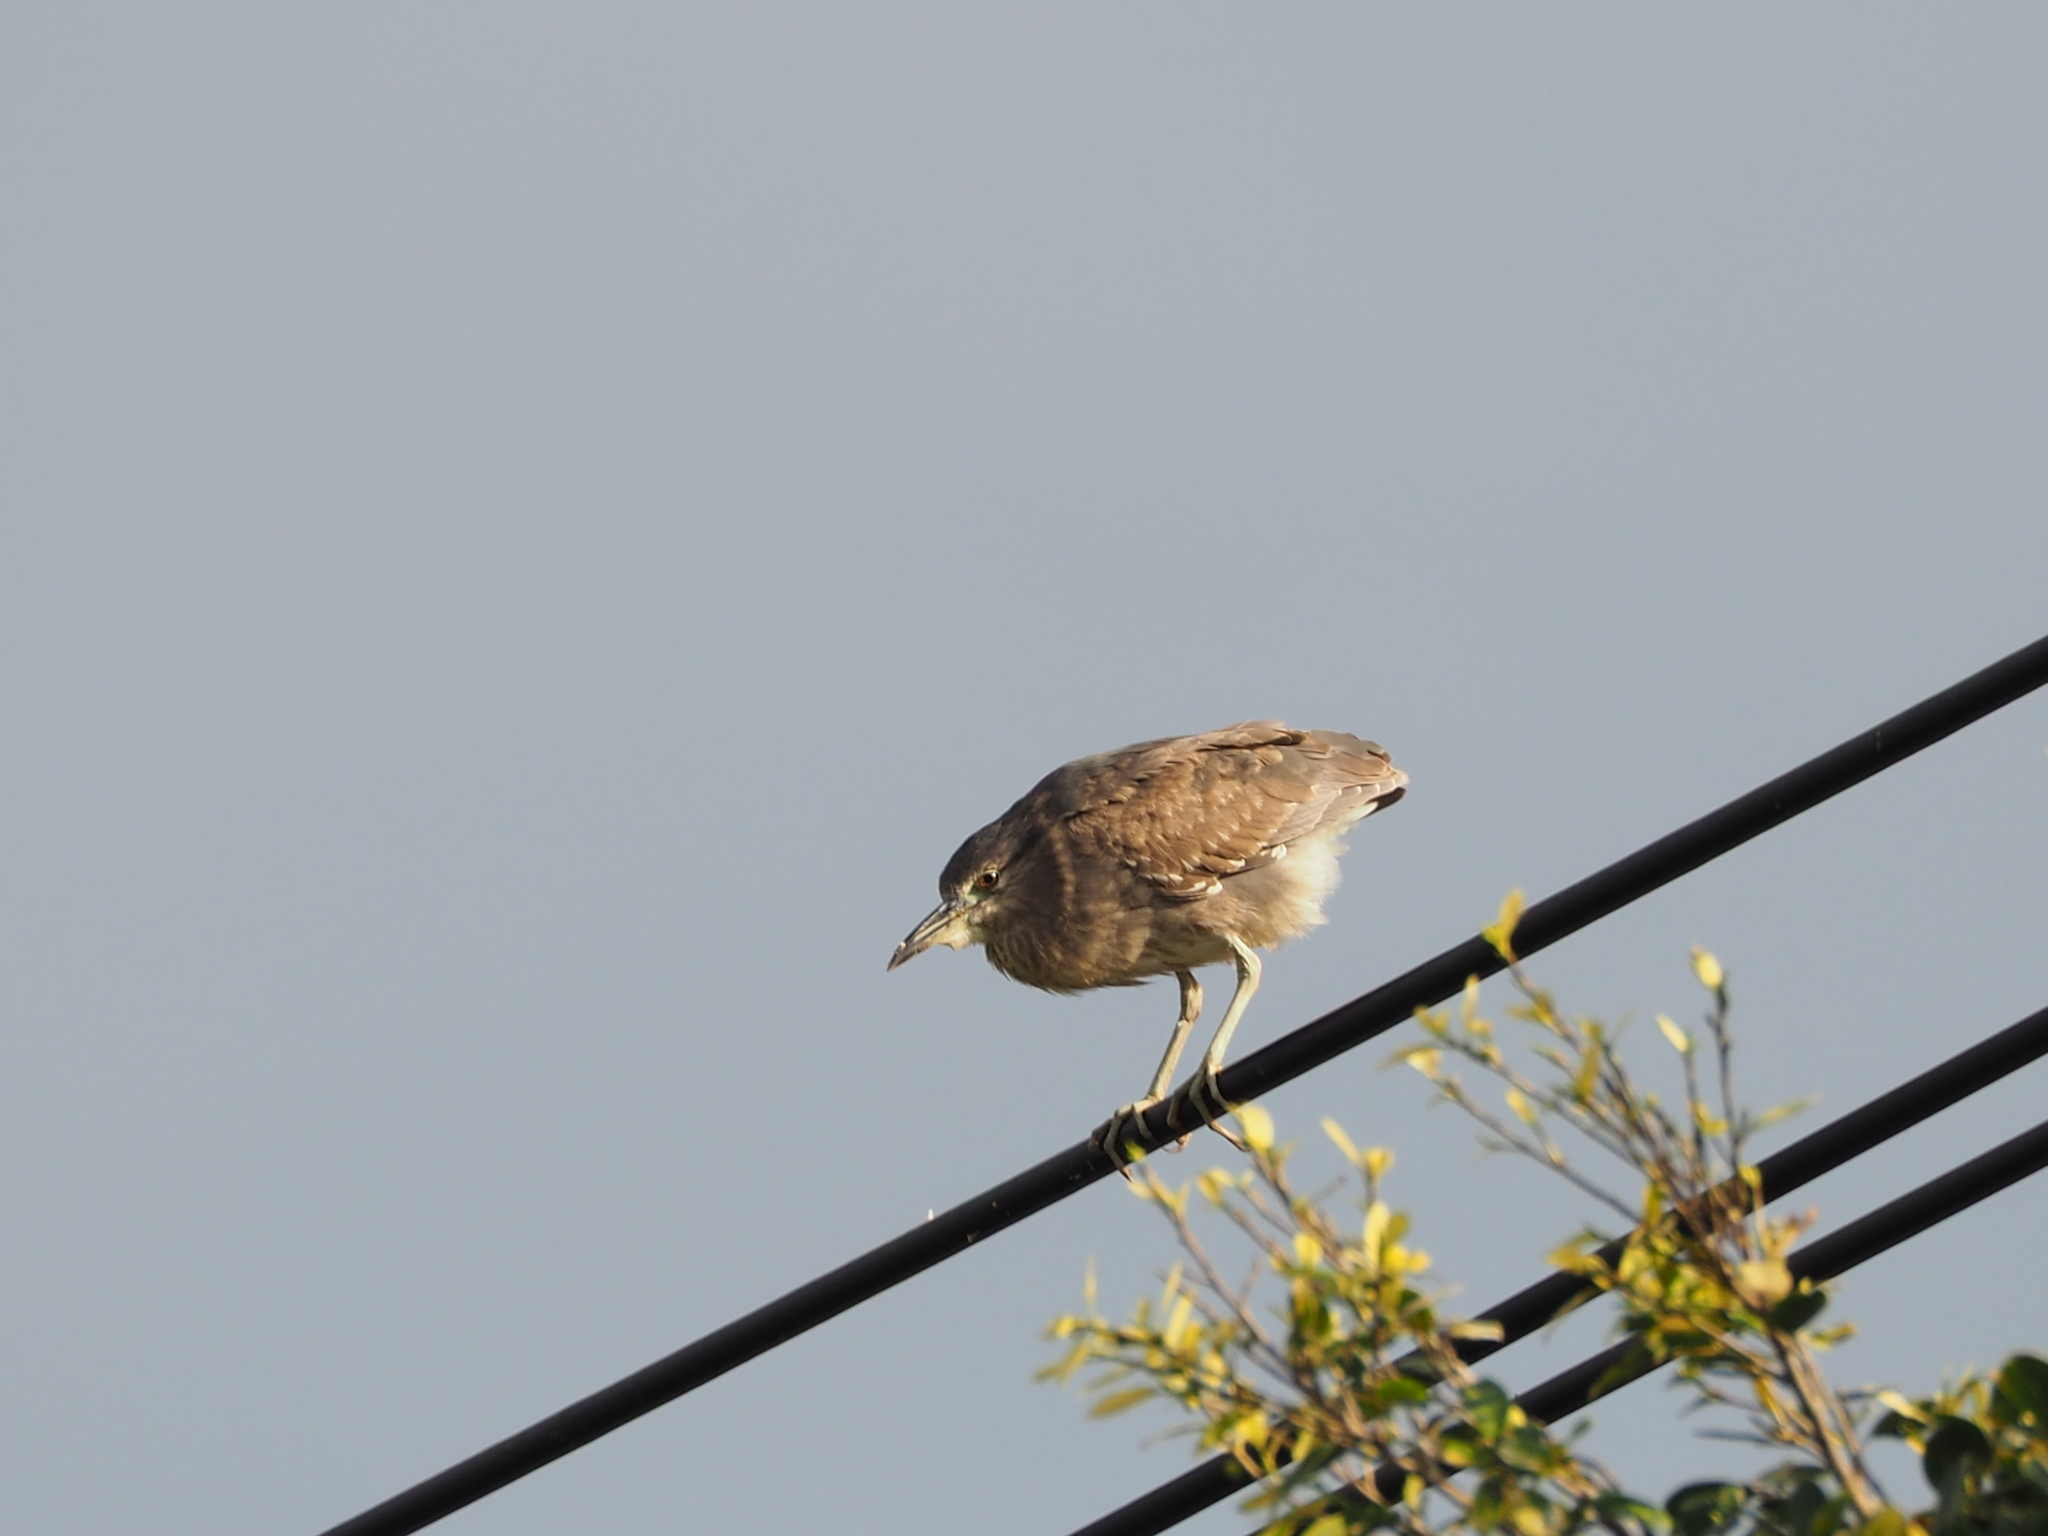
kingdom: Animalia
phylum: Chordata
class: Aves
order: Pelecaniformes
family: Ardeidae
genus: Nycticorax
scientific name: Nycticorax nycticorax
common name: Black-crowned night heron
